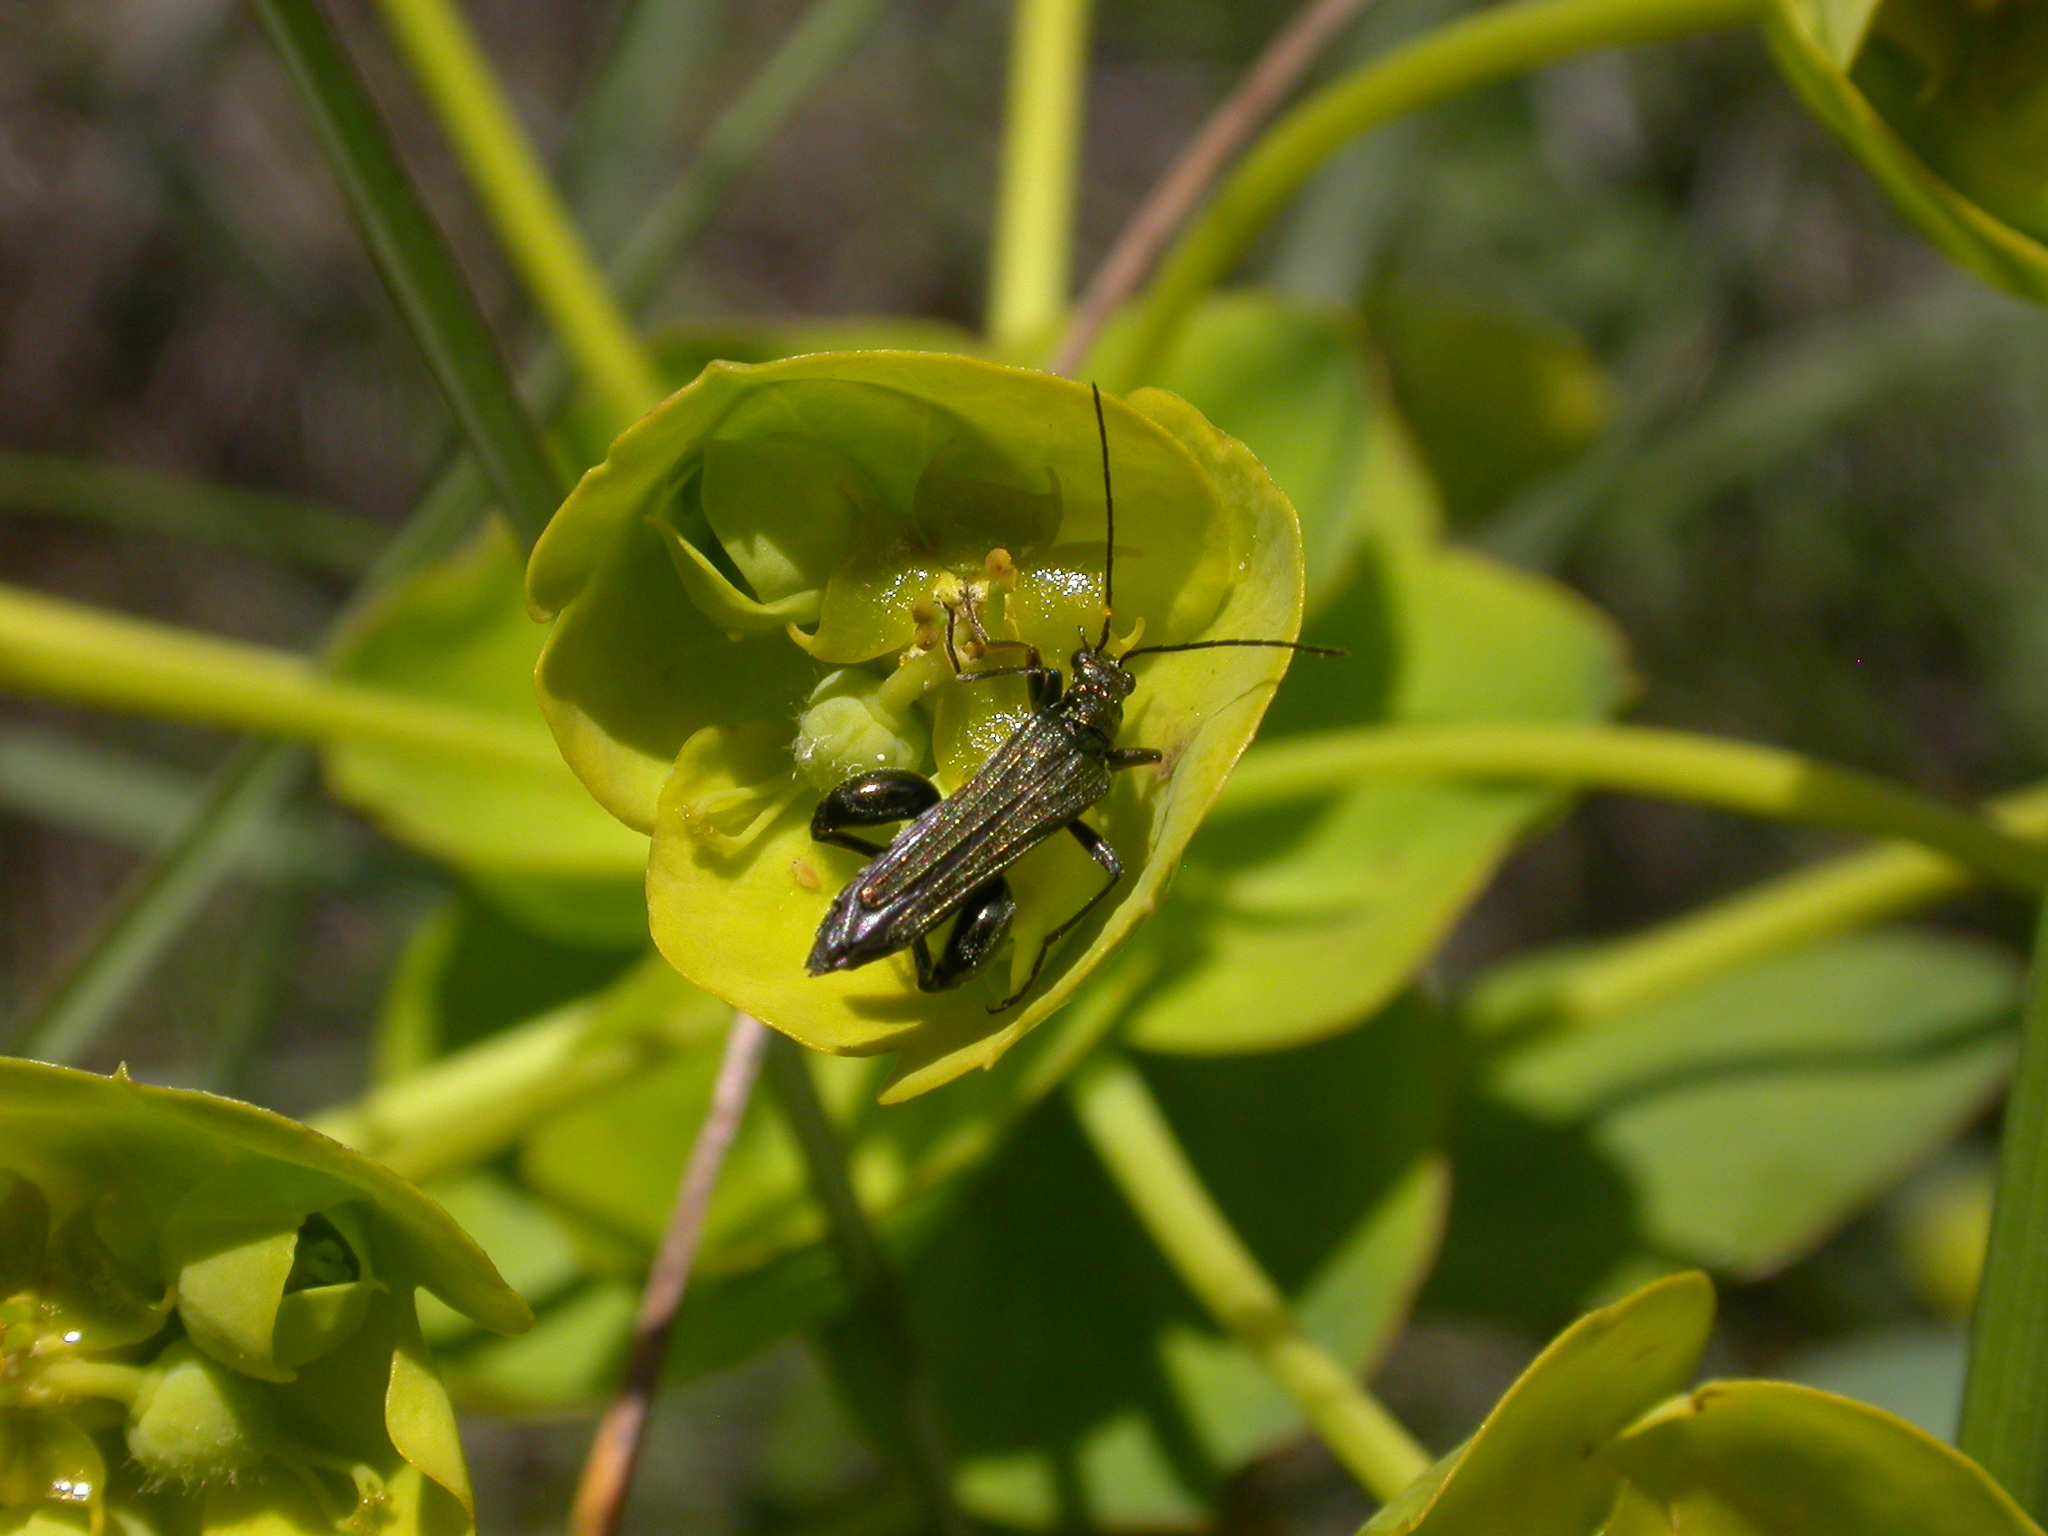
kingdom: Animalia
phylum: Arthropoda
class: Insecta
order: Coleoptera
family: Oedemeridae
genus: Oedemera
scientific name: Oedemera flavipes
